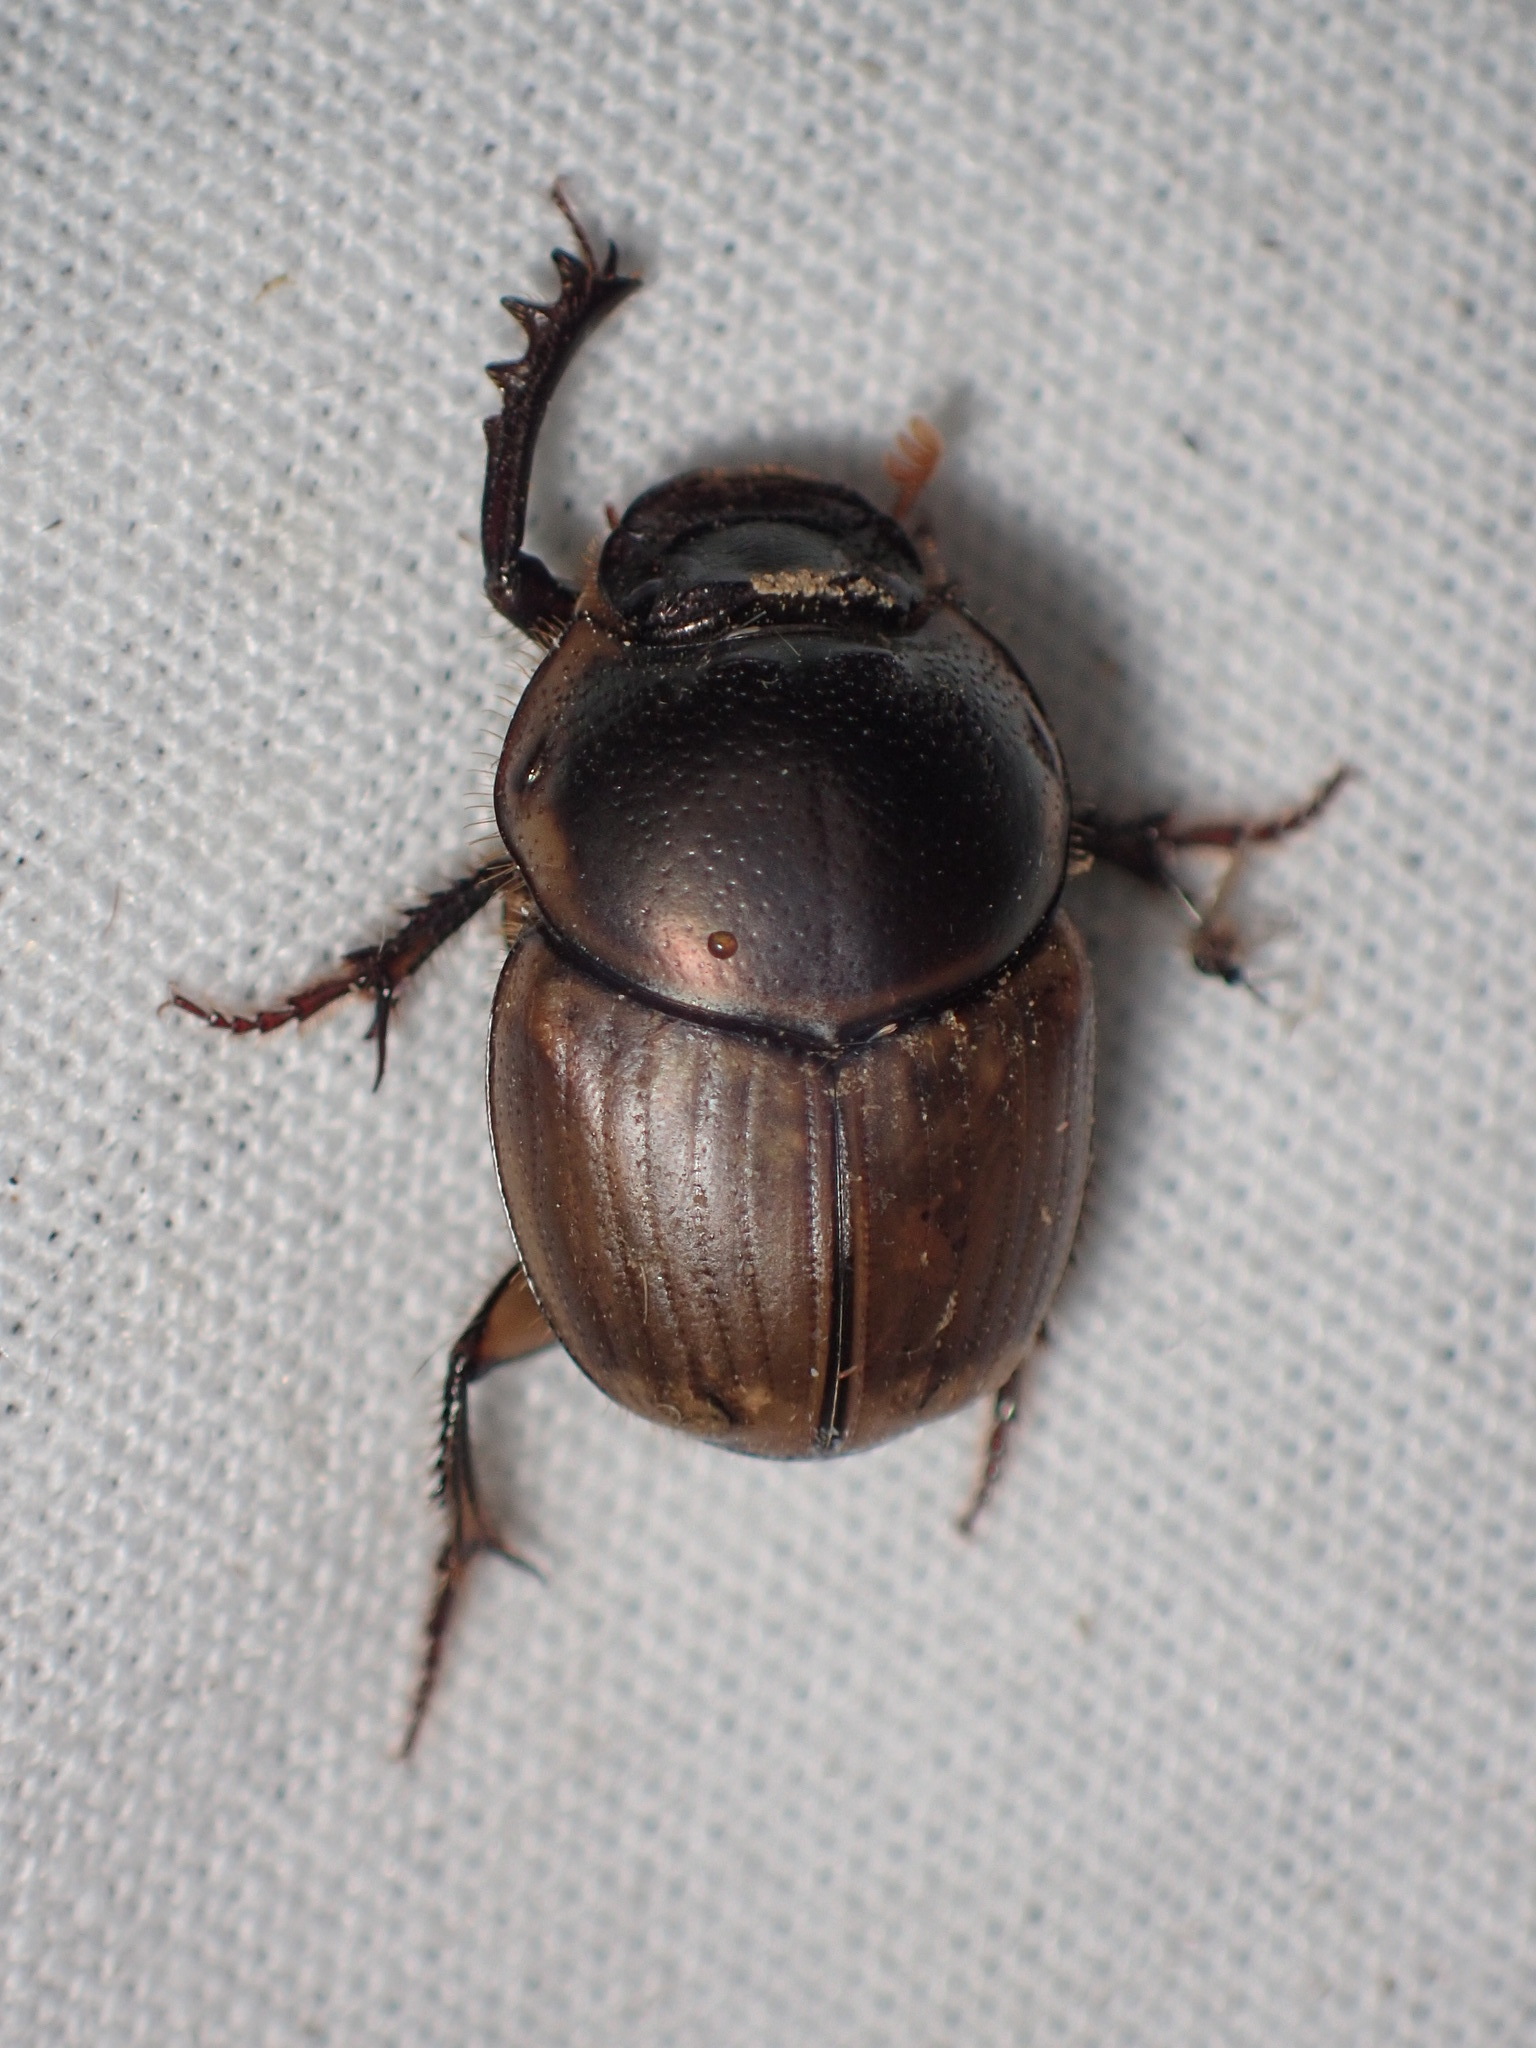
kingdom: Animalia
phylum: Arthropoda
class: Insecta
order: Coleoptera
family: Scarabaeidae
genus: Digitonthophagus
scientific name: Digitonthophagus gazella
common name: Brown dung beetle
